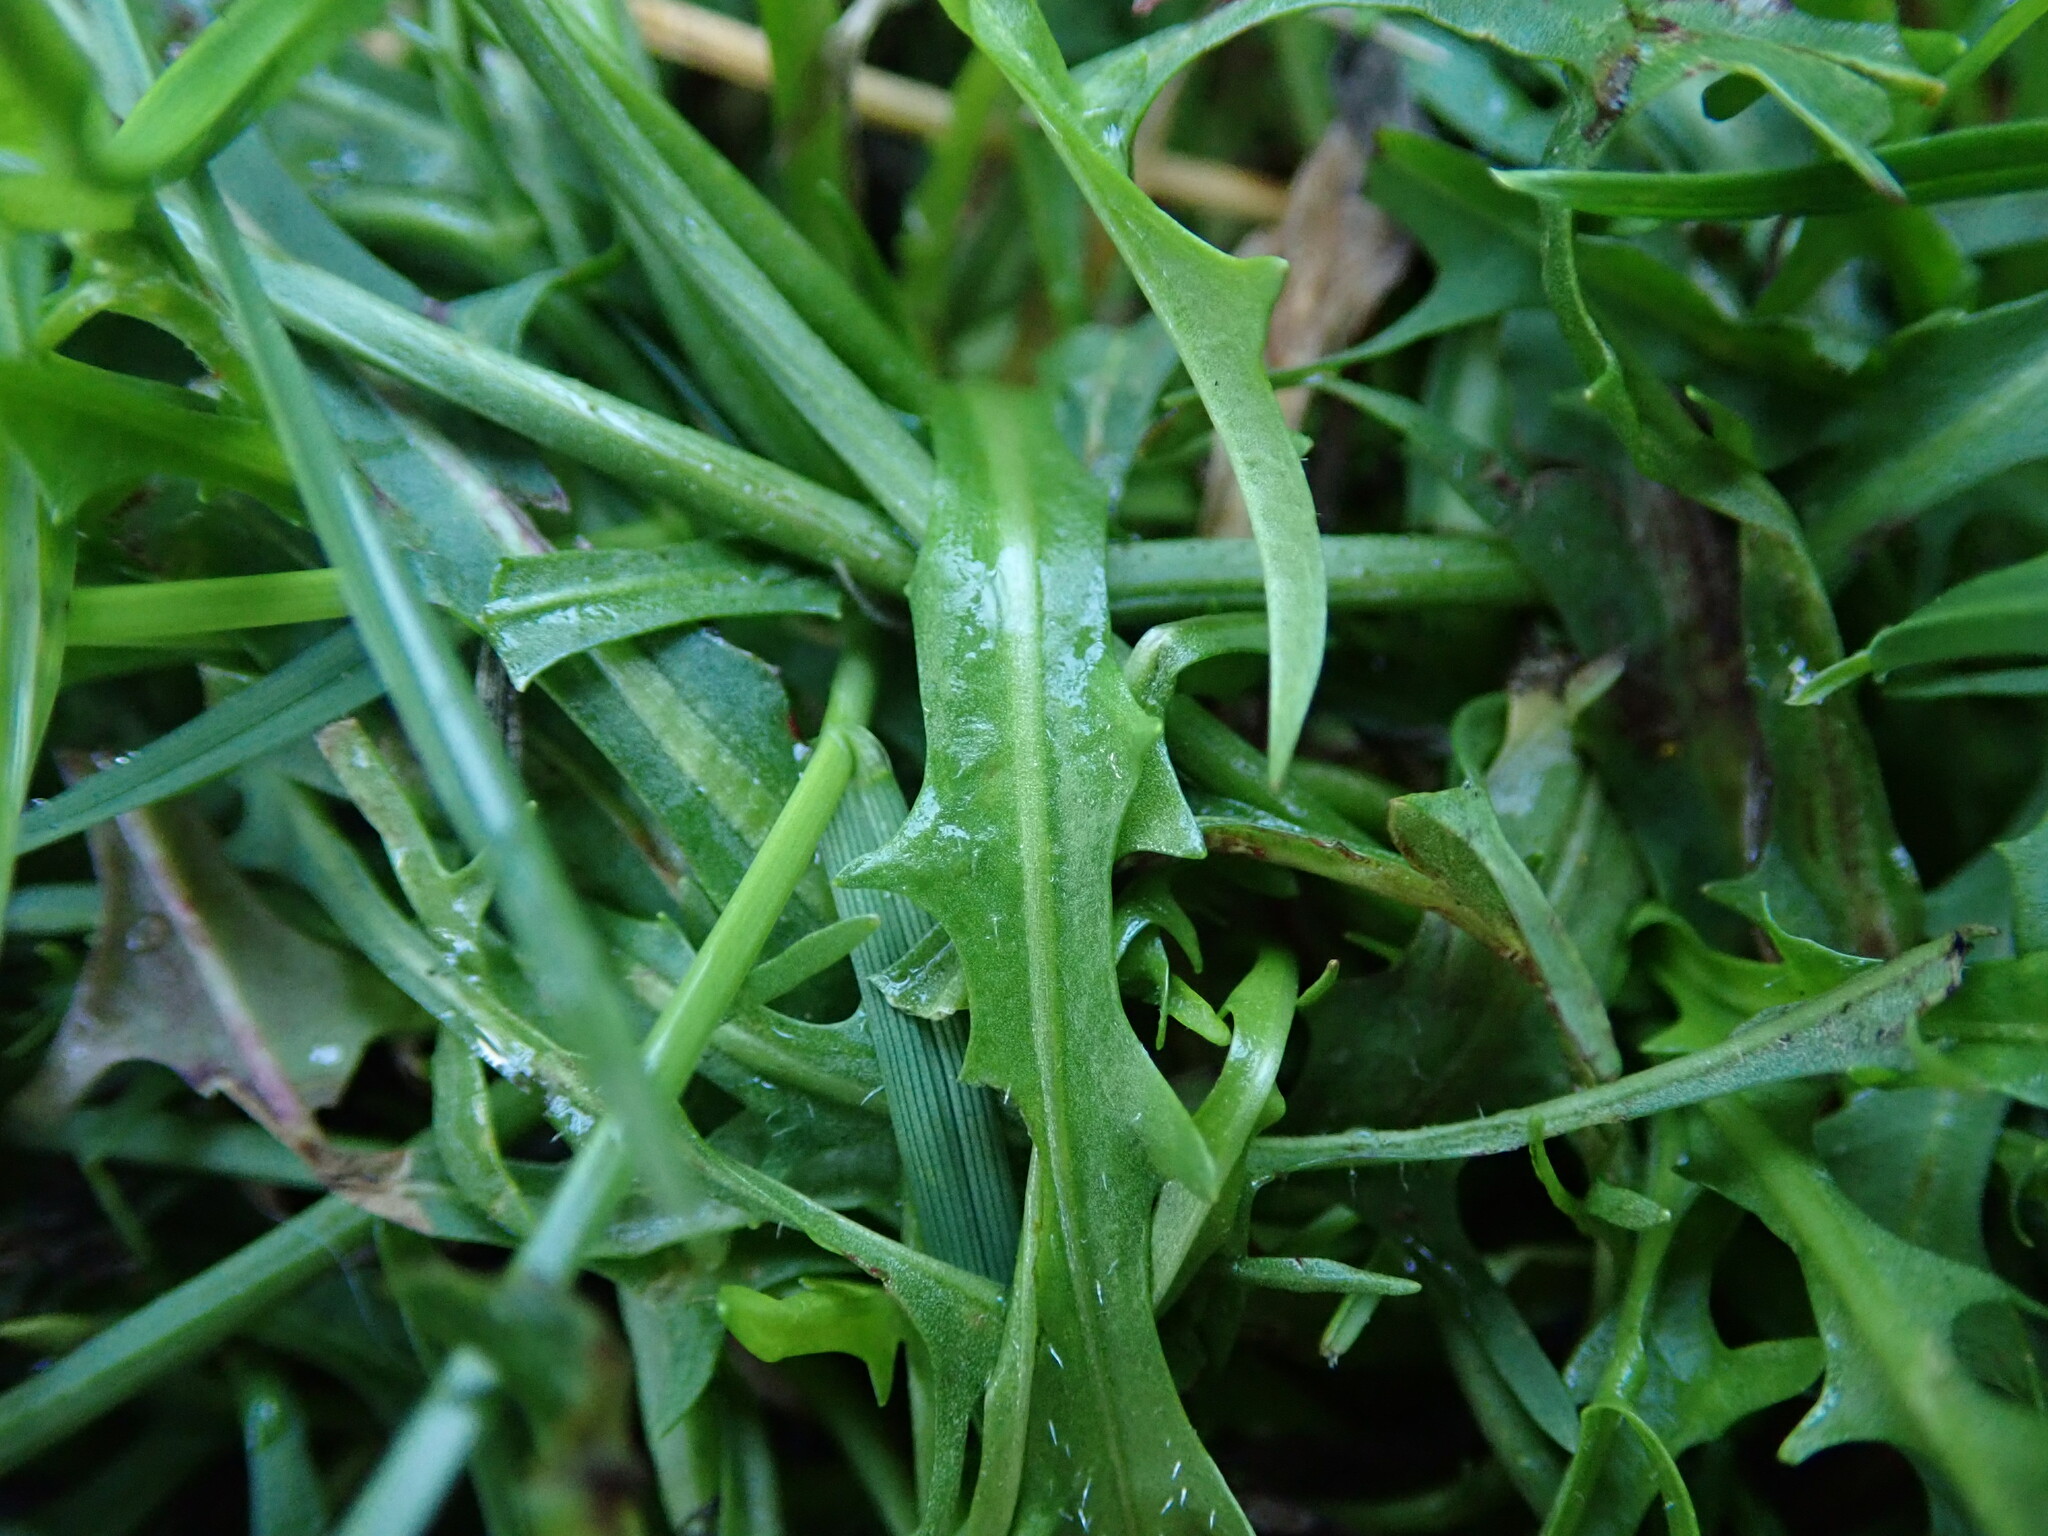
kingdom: Plantae
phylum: Tracheophyta
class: Magnoliopsida
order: Asterales
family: Asteraceae
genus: Scorzoneroides
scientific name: Scorzoneroides autumnalis
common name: Autumn hawkbit
